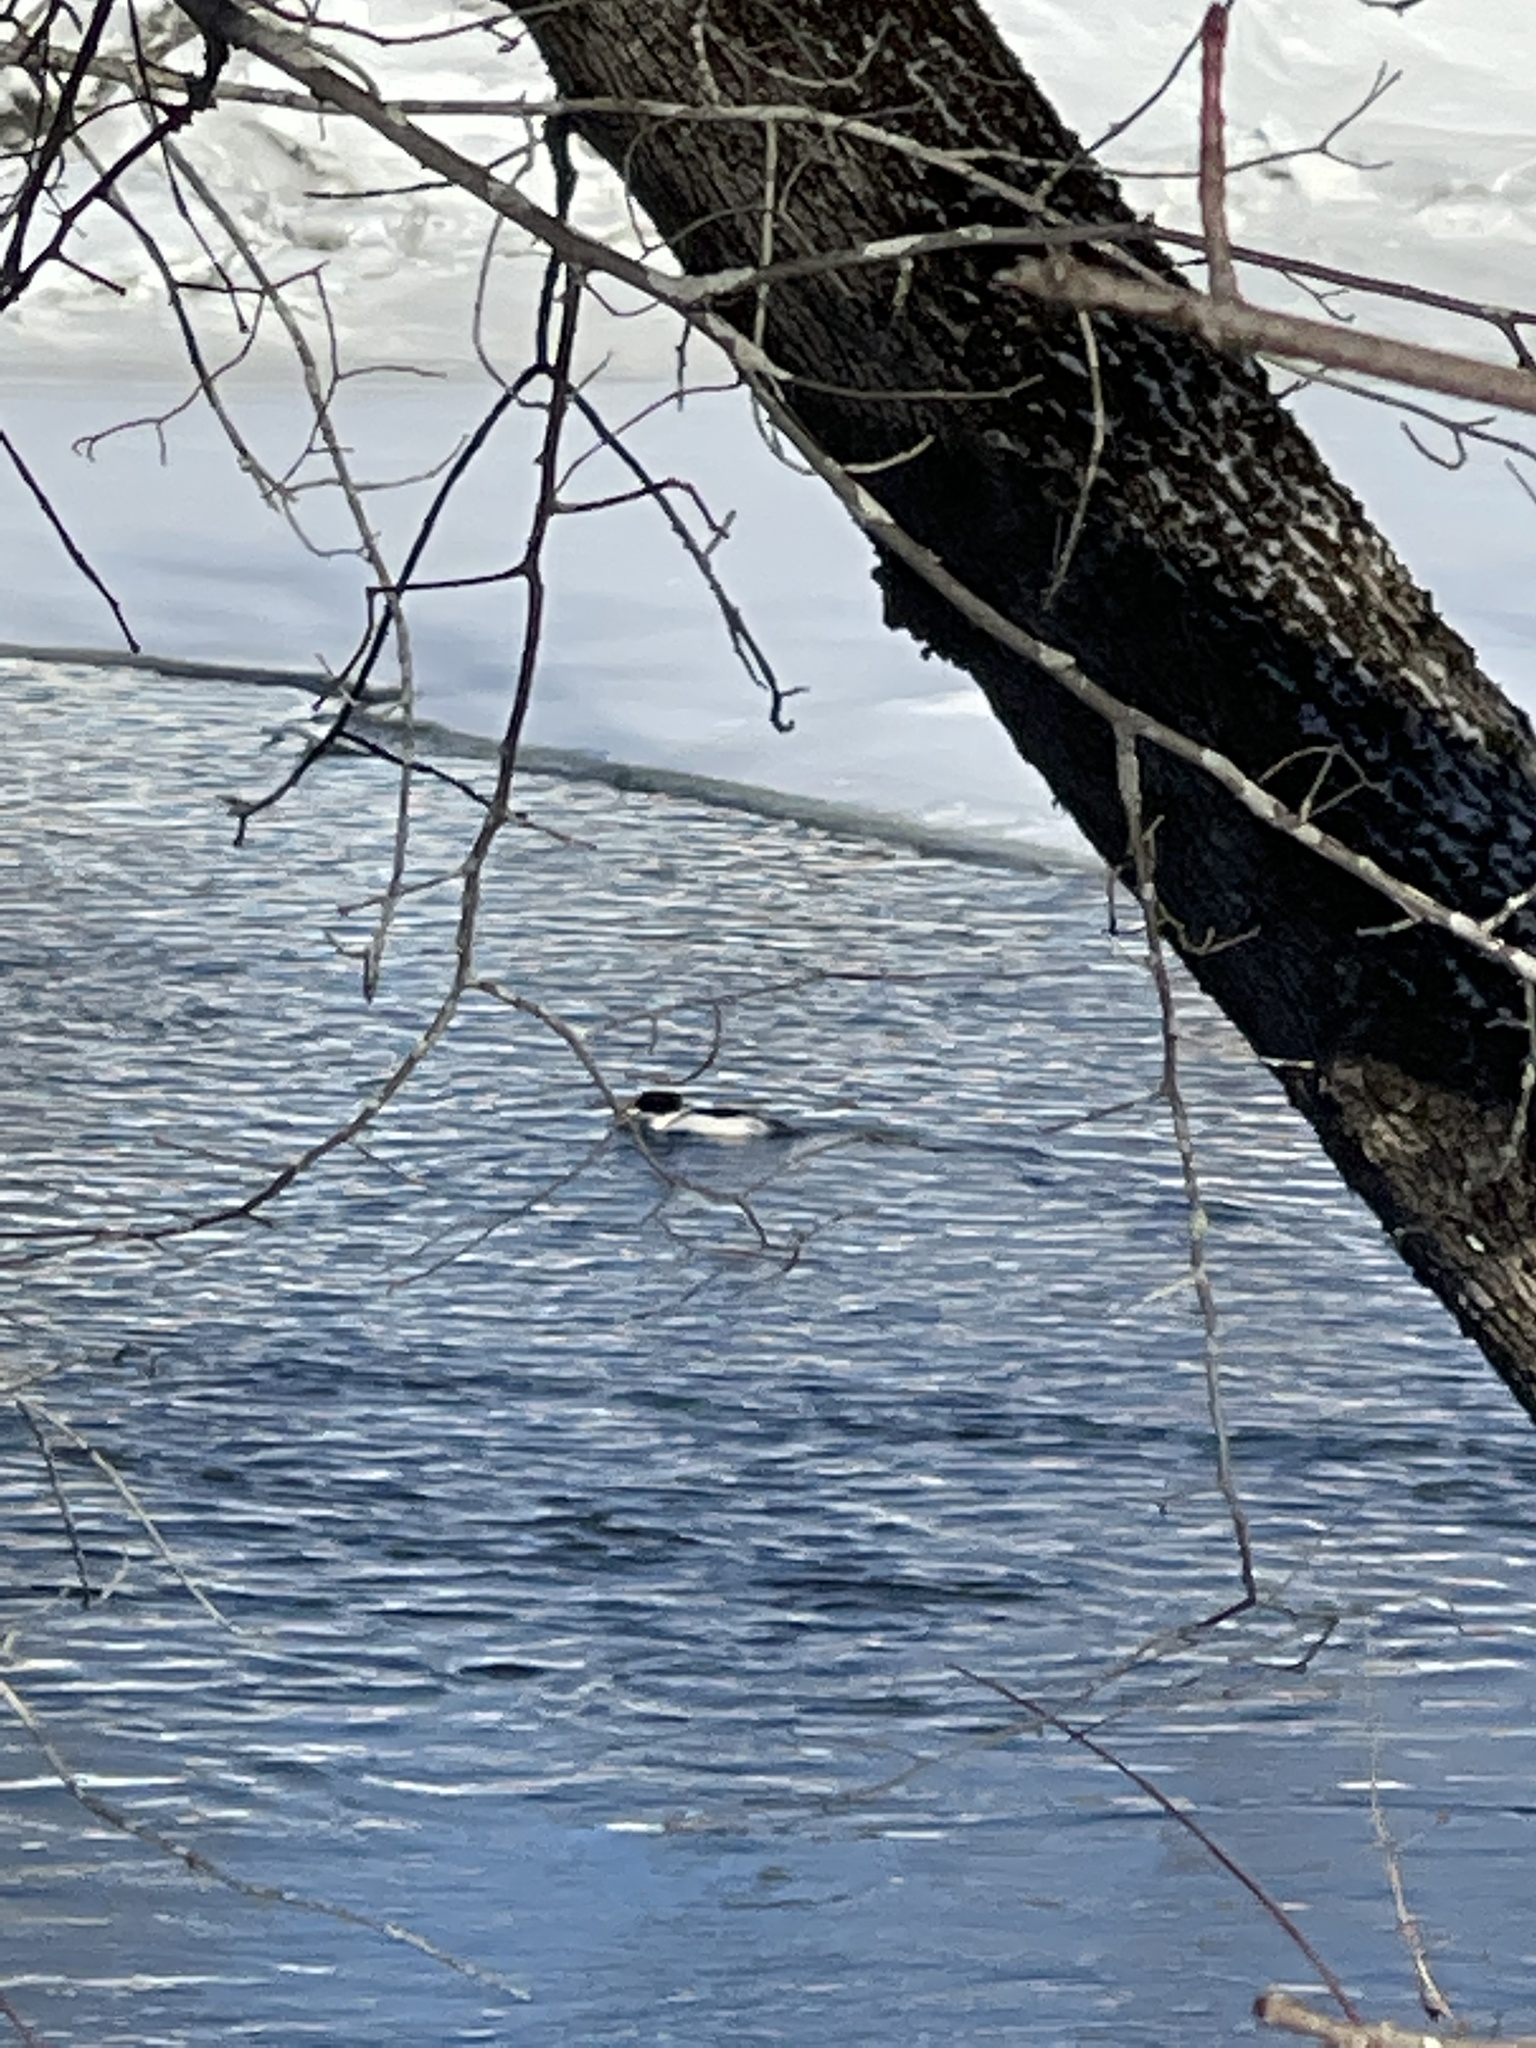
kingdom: Animalia
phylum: Chordata
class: Aves
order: Anseriformes
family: Anatidae
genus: Mergus
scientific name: Mergus merganser
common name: Common merganser
